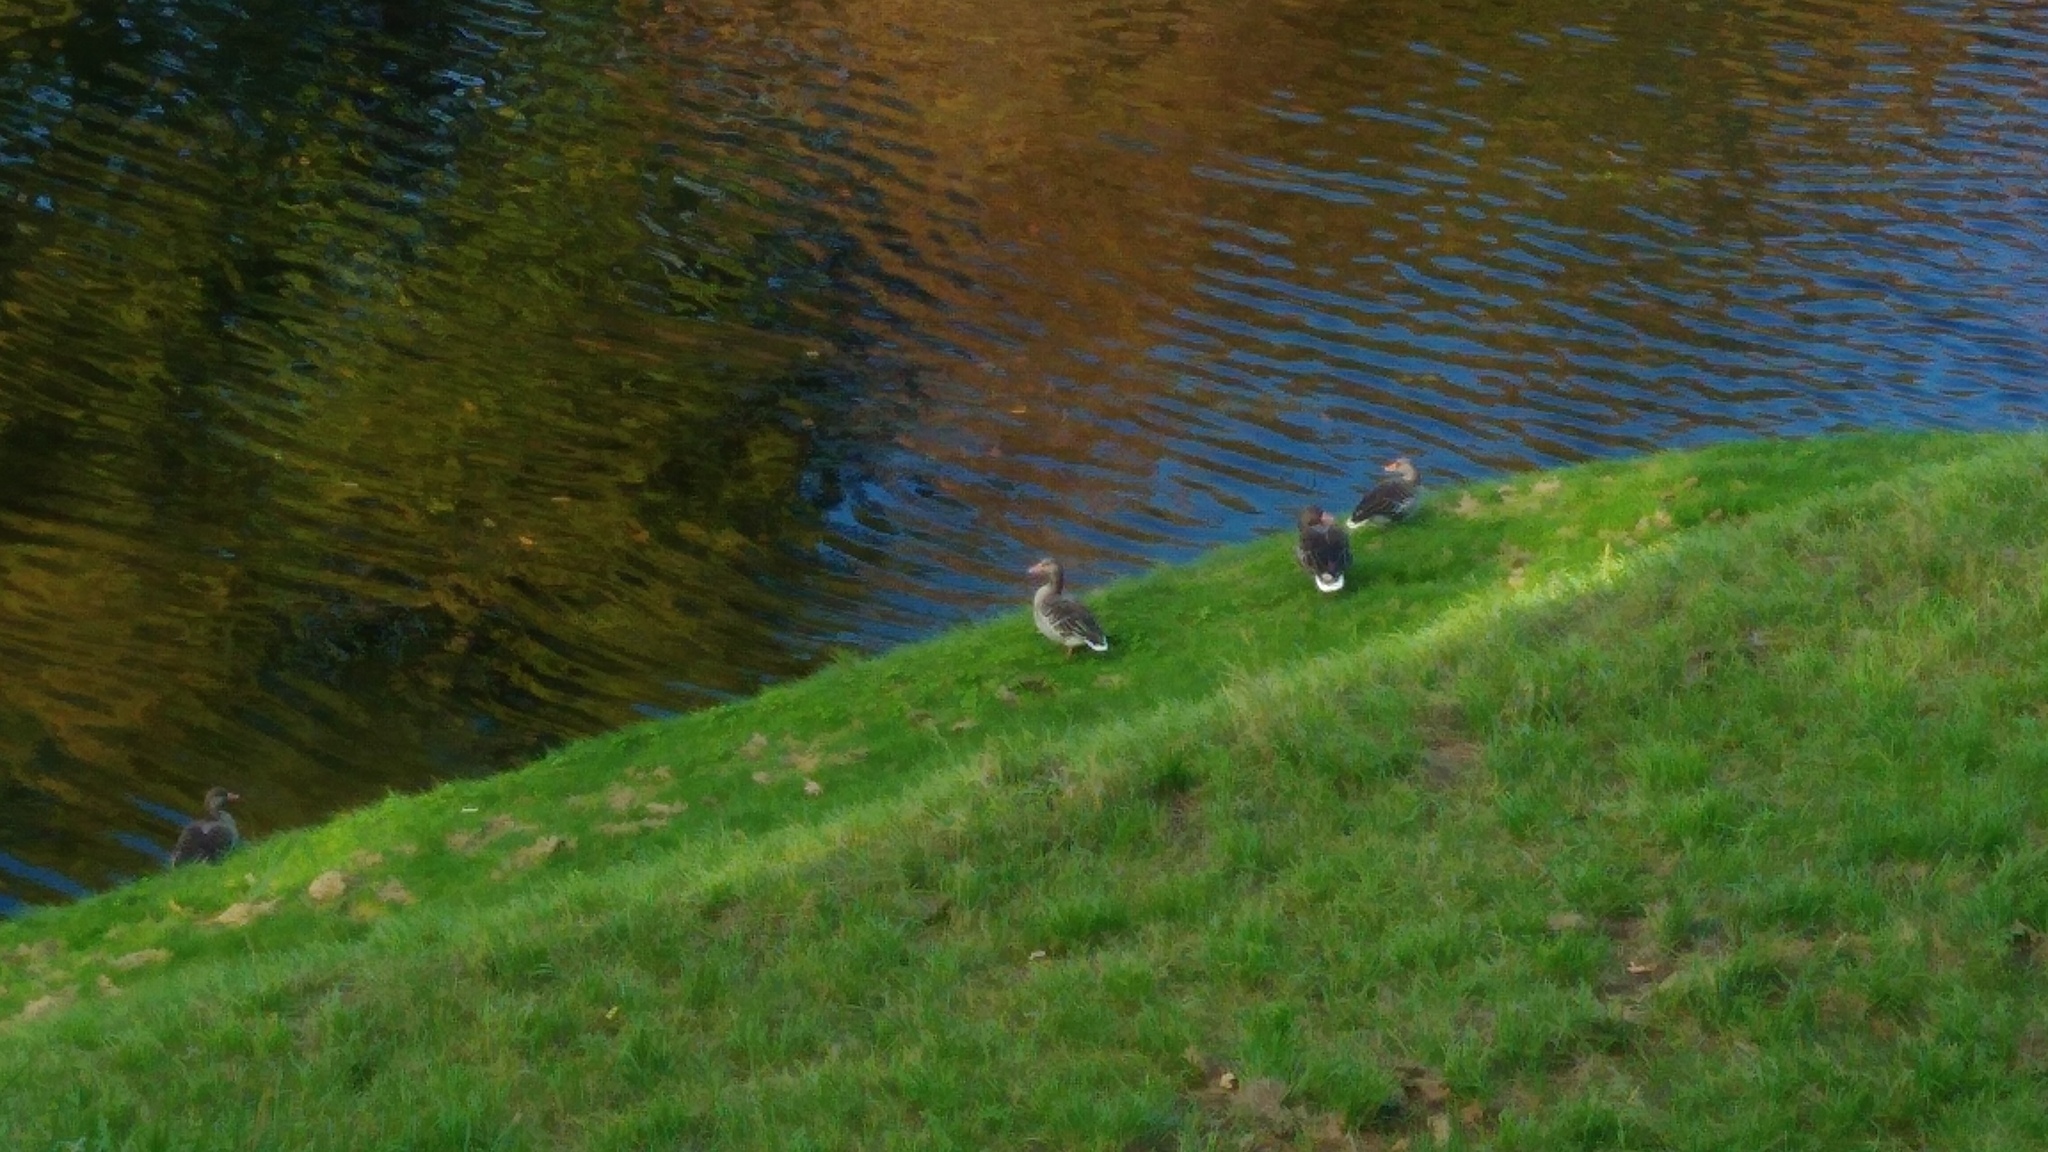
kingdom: Animalia
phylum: Chordata
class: Aves
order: Anseriformes
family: Anatidae
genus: Anser
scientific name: Anser anser
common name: Greylag goose
